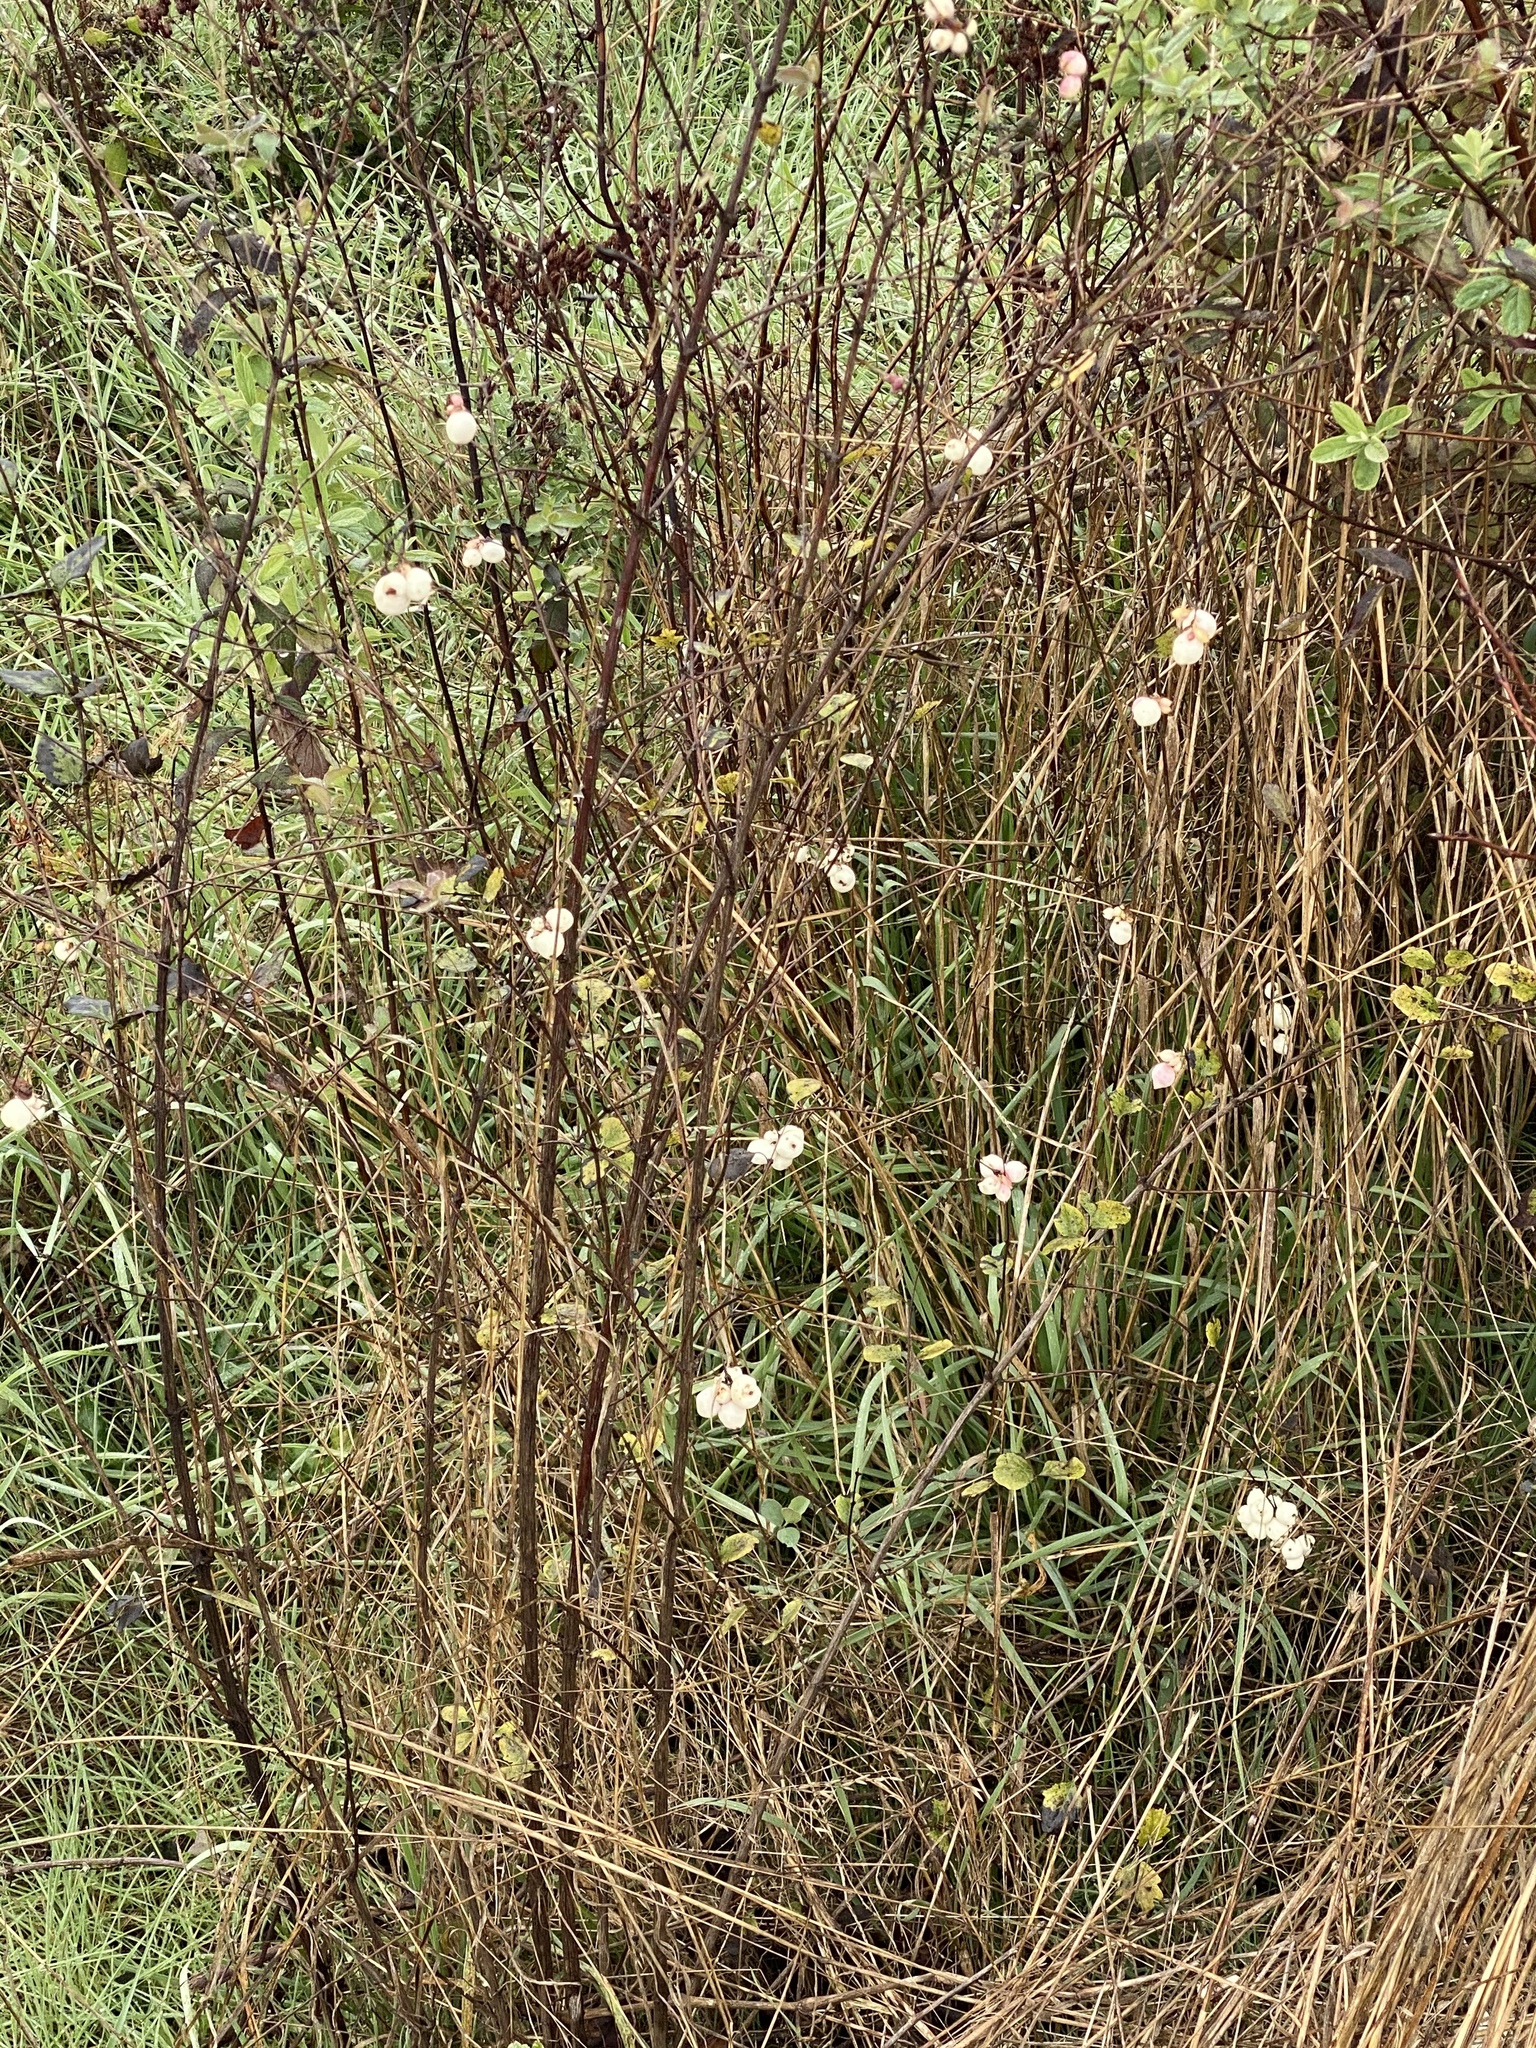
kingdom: Plantae
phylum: Tracheophyta
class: Magnoliopsida
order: Dipsacales
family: Caprifoliaceae
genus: Symphoricarpos
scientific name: Symphoricarpos albus
